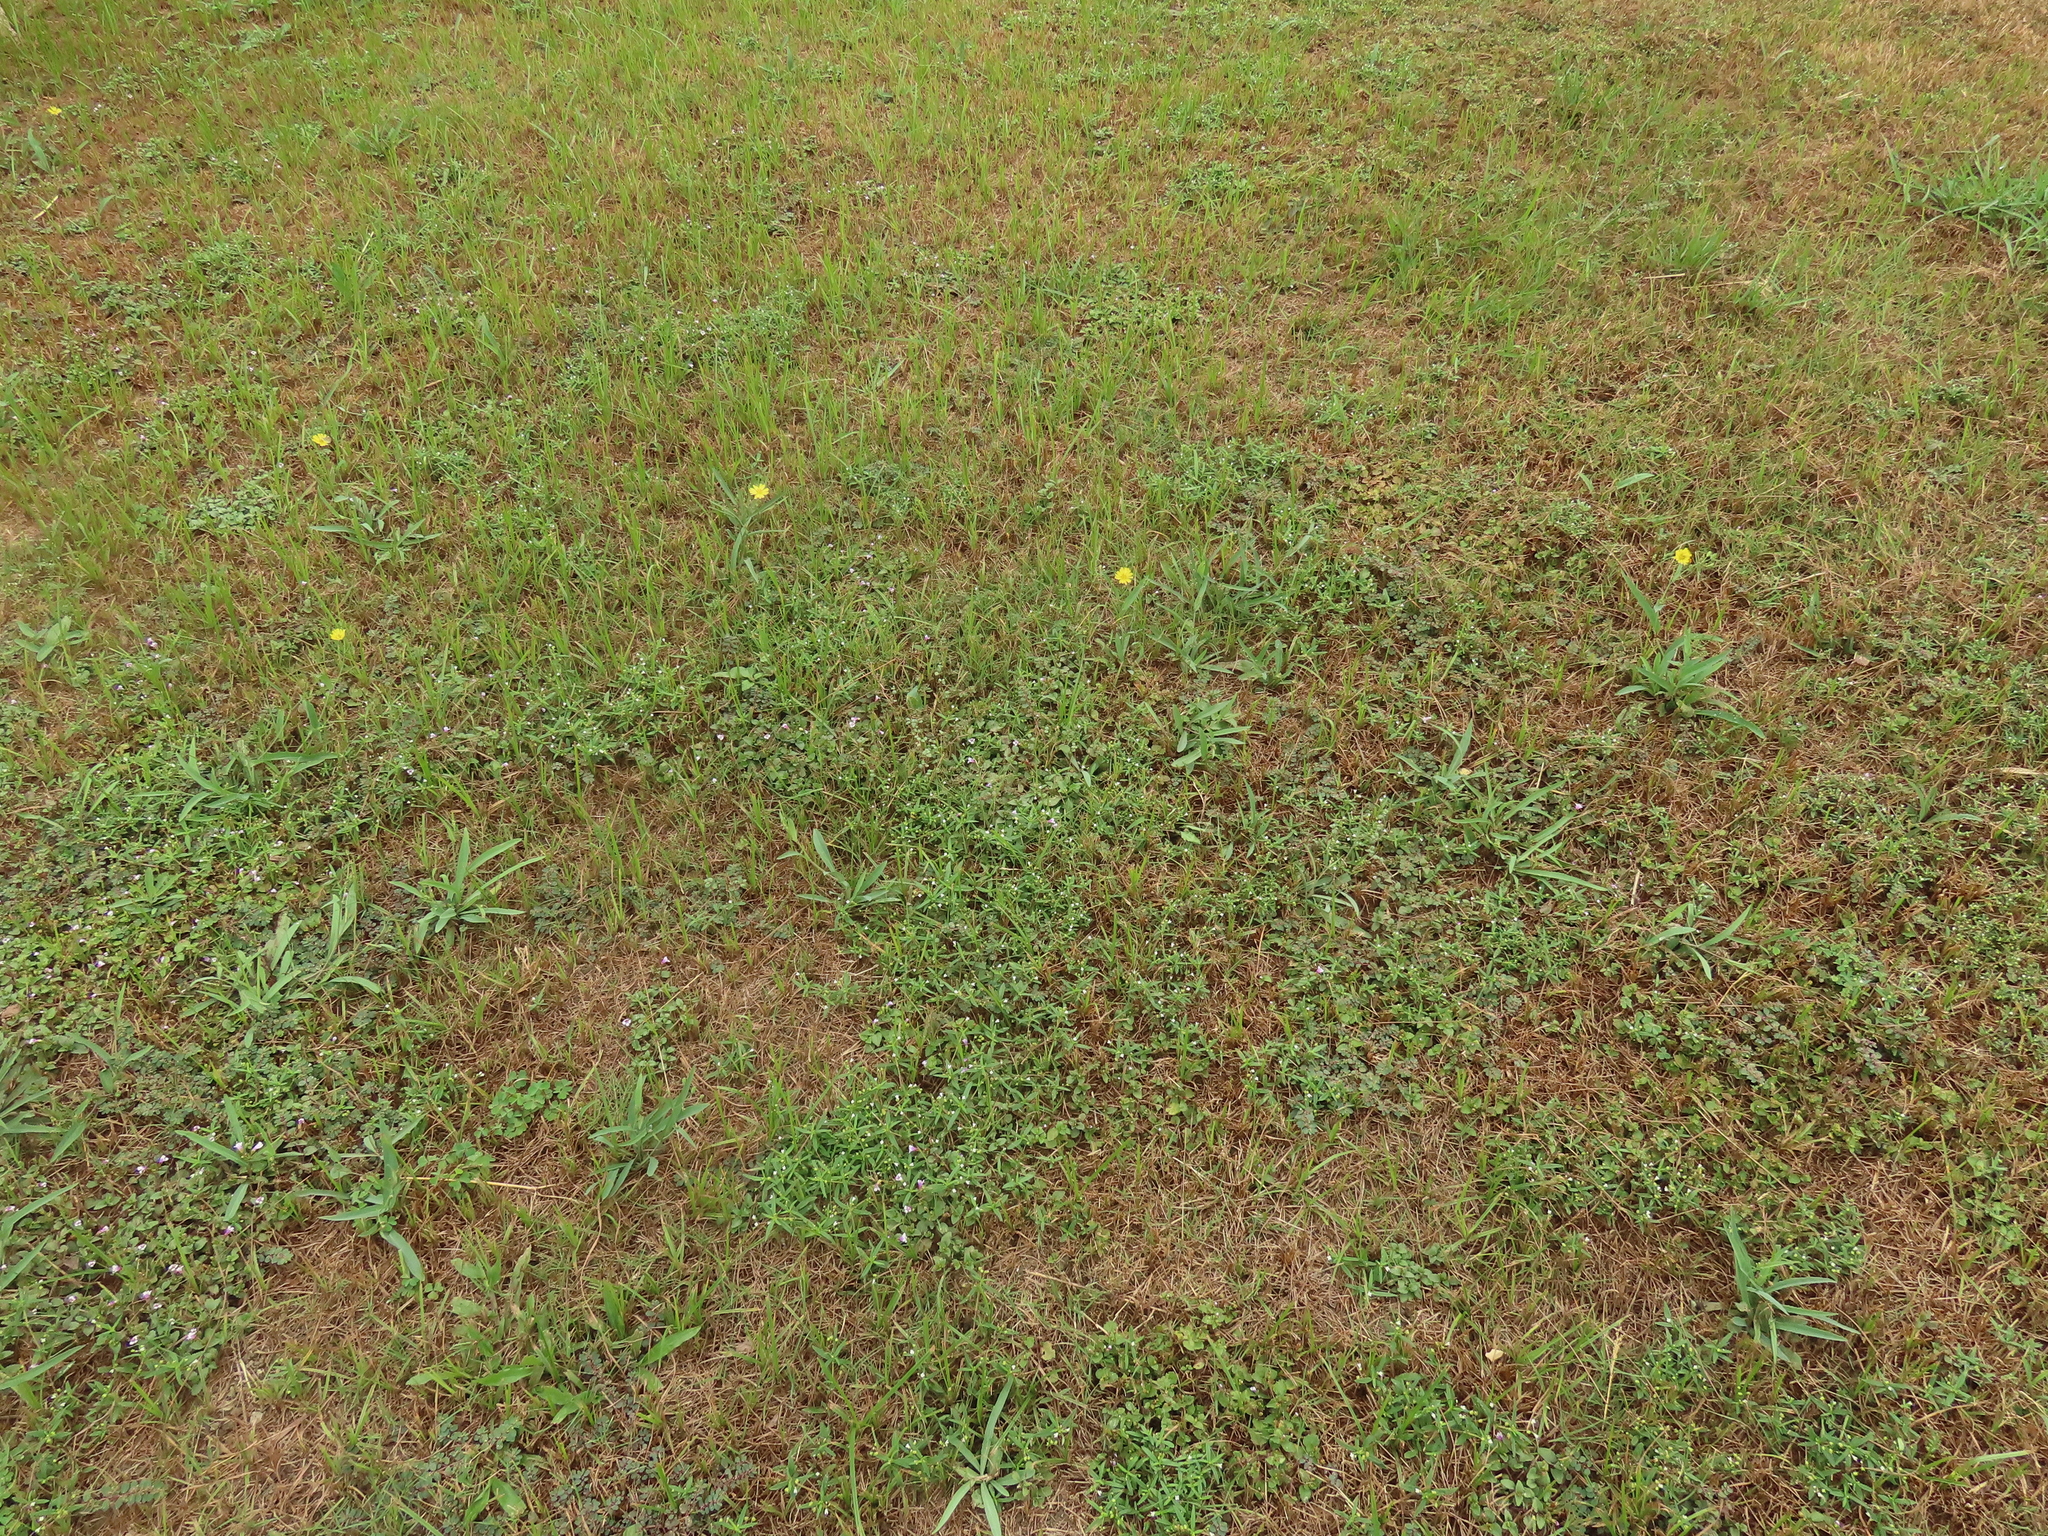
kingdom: Plantae
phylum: Tracheophyta
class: Magnoliopsida
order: Gentianales
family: Rubiaceae
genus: Oldenlandia
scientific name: Oldenlandia corymbosa
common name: Flat-top mille graines
